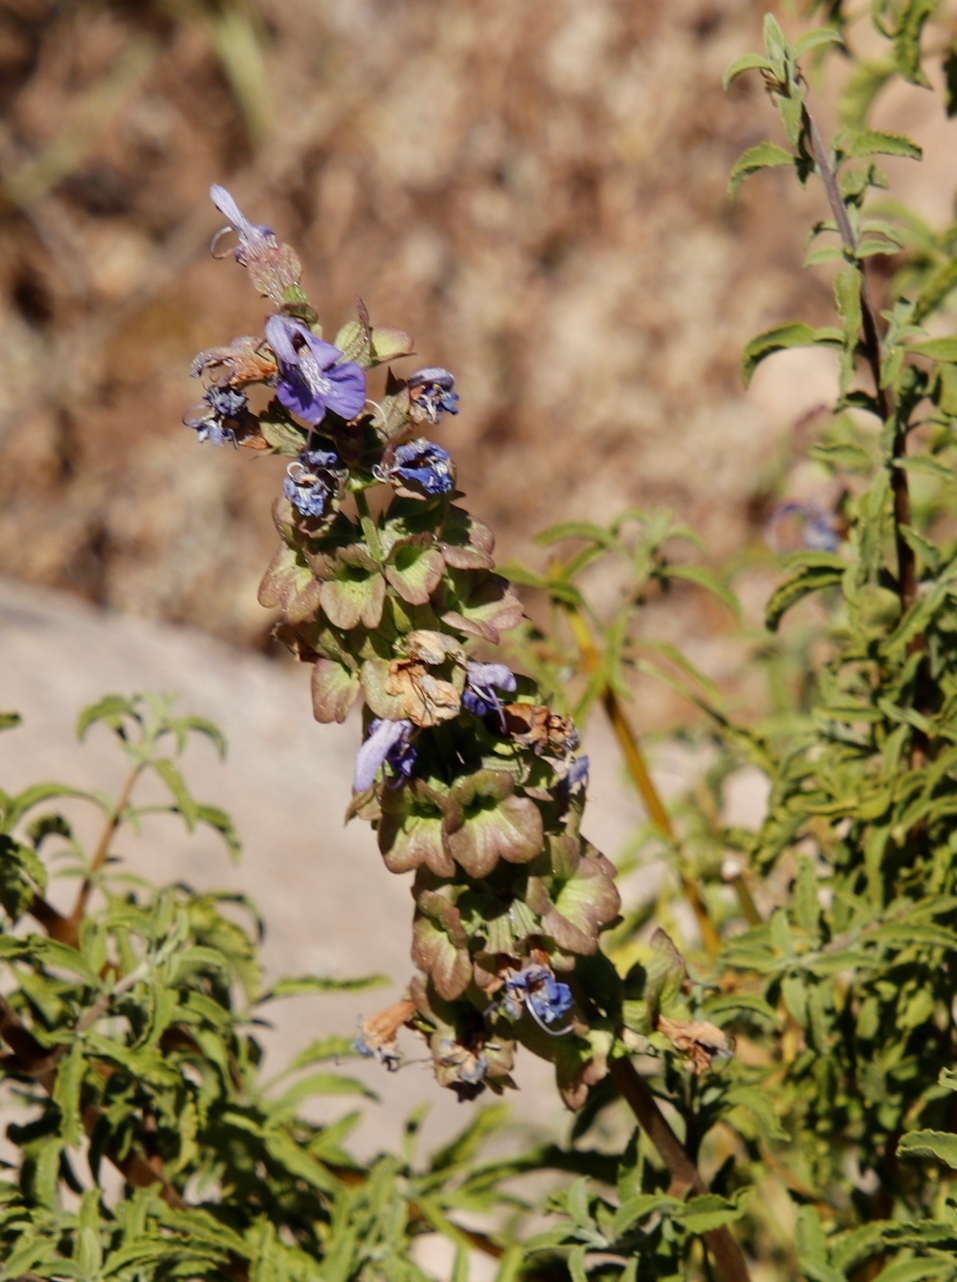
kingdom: Plantae
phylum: Tracheophyta
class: Magnoliopsida
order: Lamiales
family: Lamiaceae
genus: Salvia
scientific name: Salvia dentata
